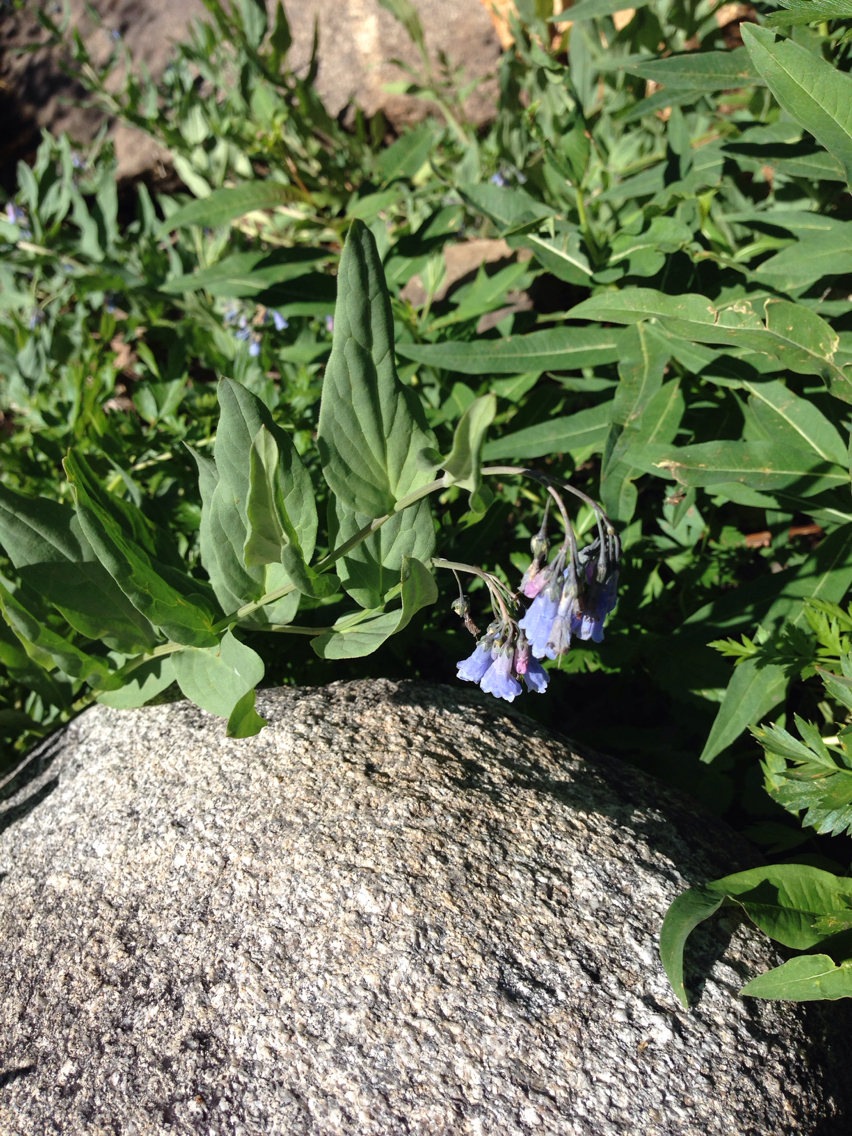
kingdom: Plantae
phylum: Tracheophyta
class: Magnoliopsida
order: Boraginales
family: Boraginaceae
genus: Mertensia
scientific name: Mertensia ciliata
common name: Tall chiming-bells
